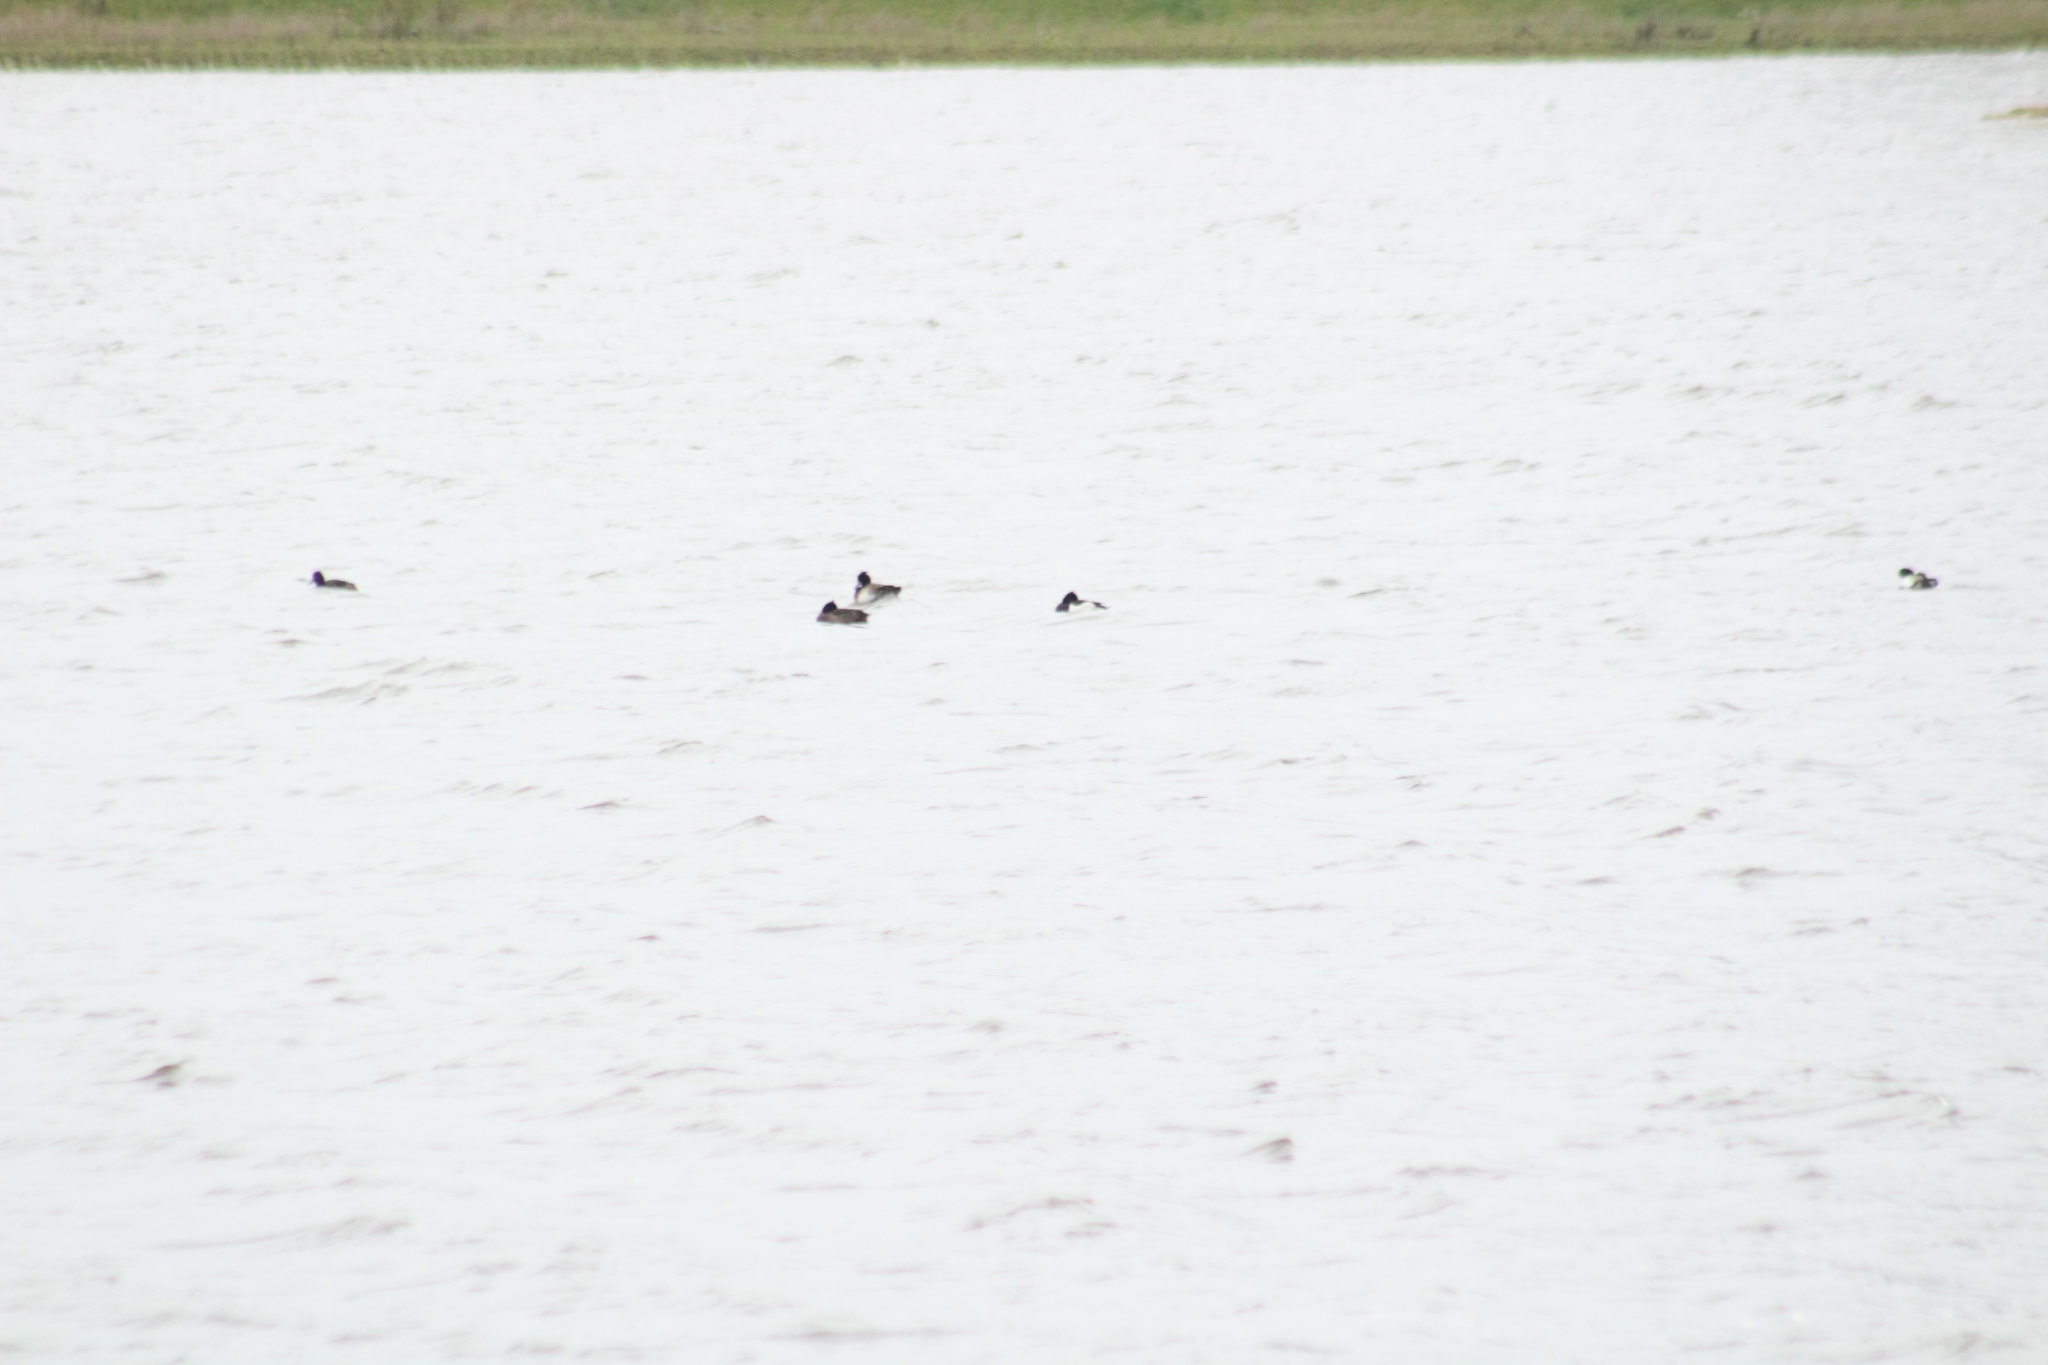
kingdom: Animalia
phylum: Chordata
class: Aves
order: Anseriformes
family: Anatidae
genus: Aythya
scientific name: Aythya fuligula
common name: Tufted duck
